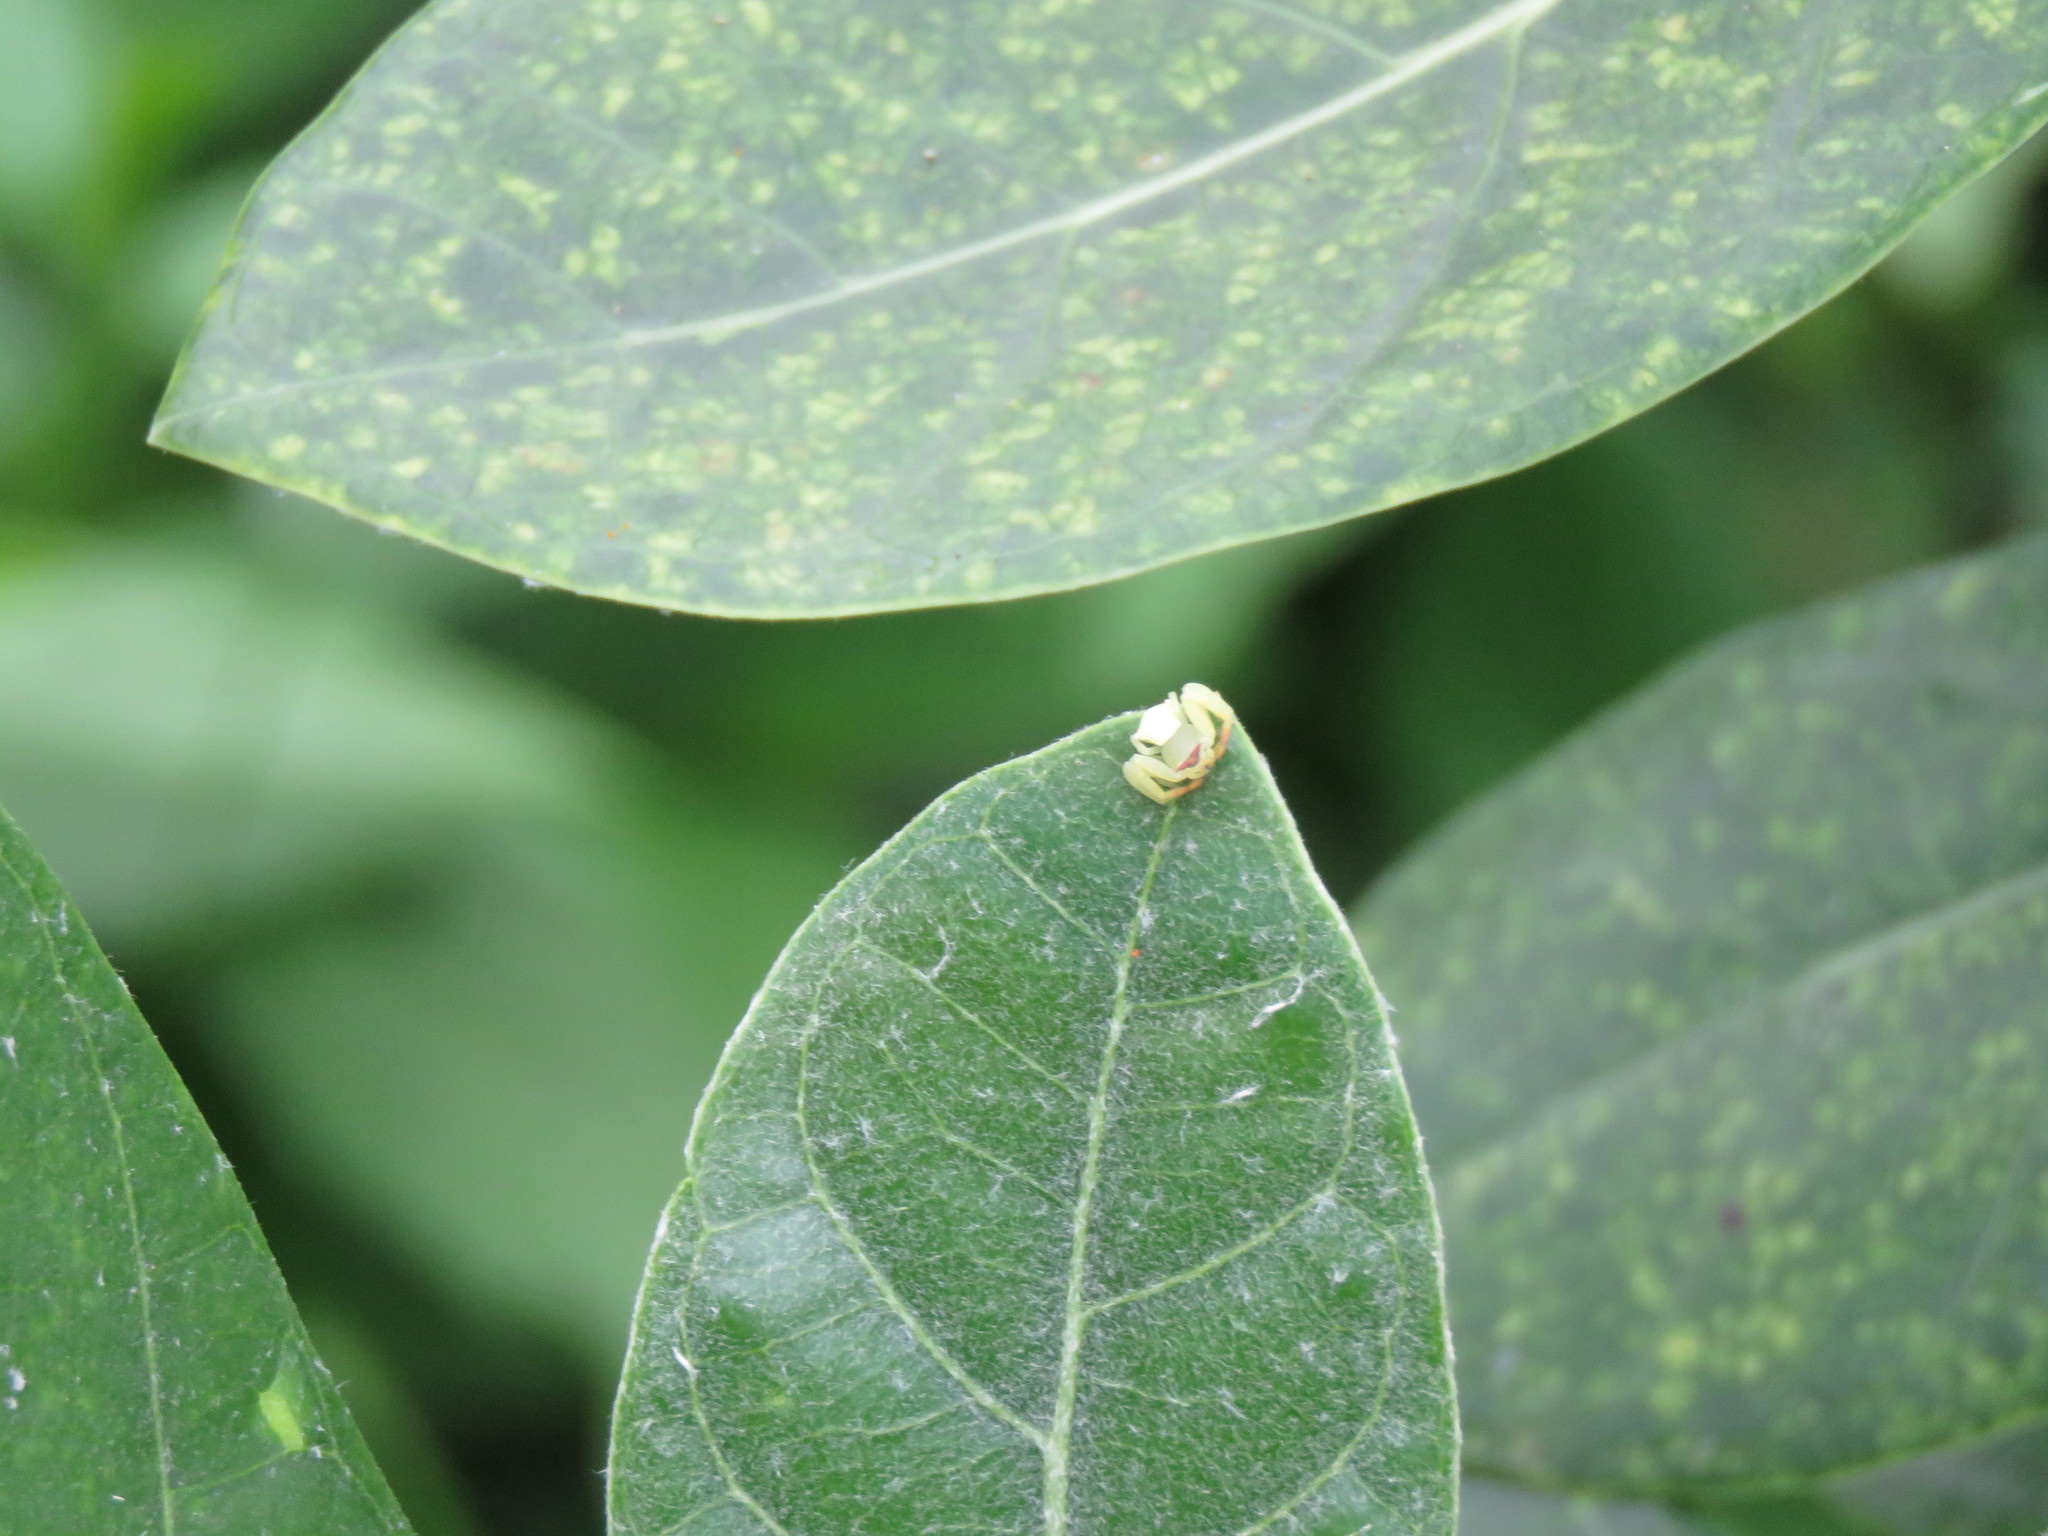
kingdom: Animalia
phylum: Arthropoda
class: Arachnida
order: Araneae
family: Thomisidae
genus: Thomisus
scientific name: Thomisus labefactus
